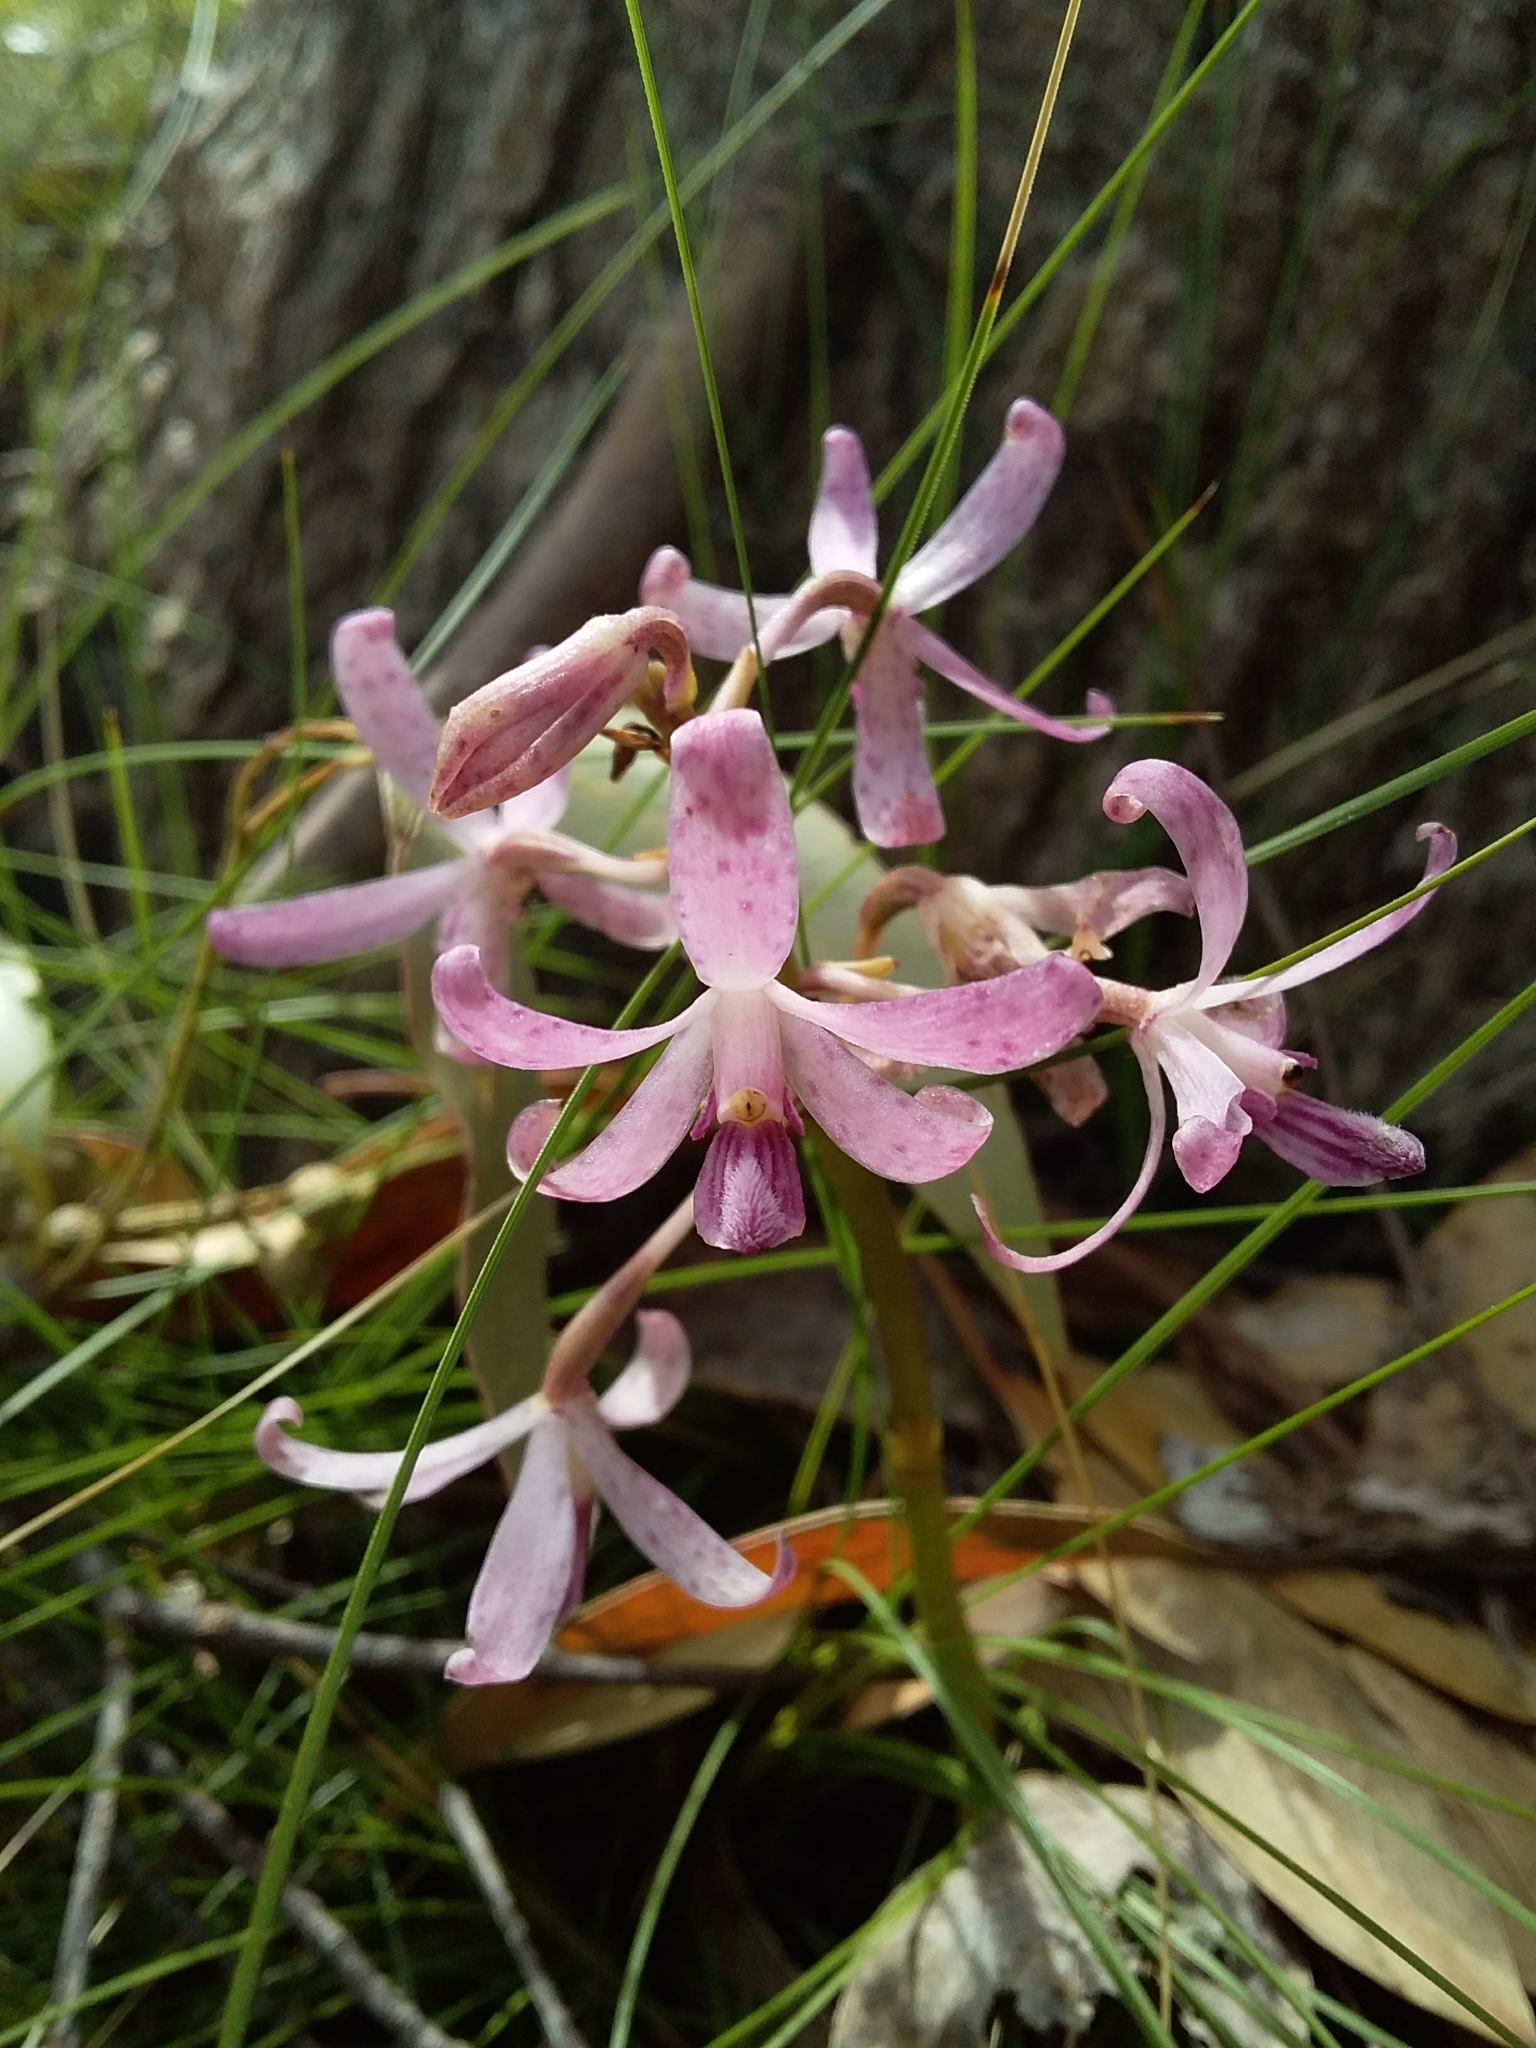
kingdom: Plantae
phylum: Tracheophyta
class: Liliopsida
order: Asparagales
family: Orchidaceae
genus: Dipodium
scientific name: Dipodium roseum
